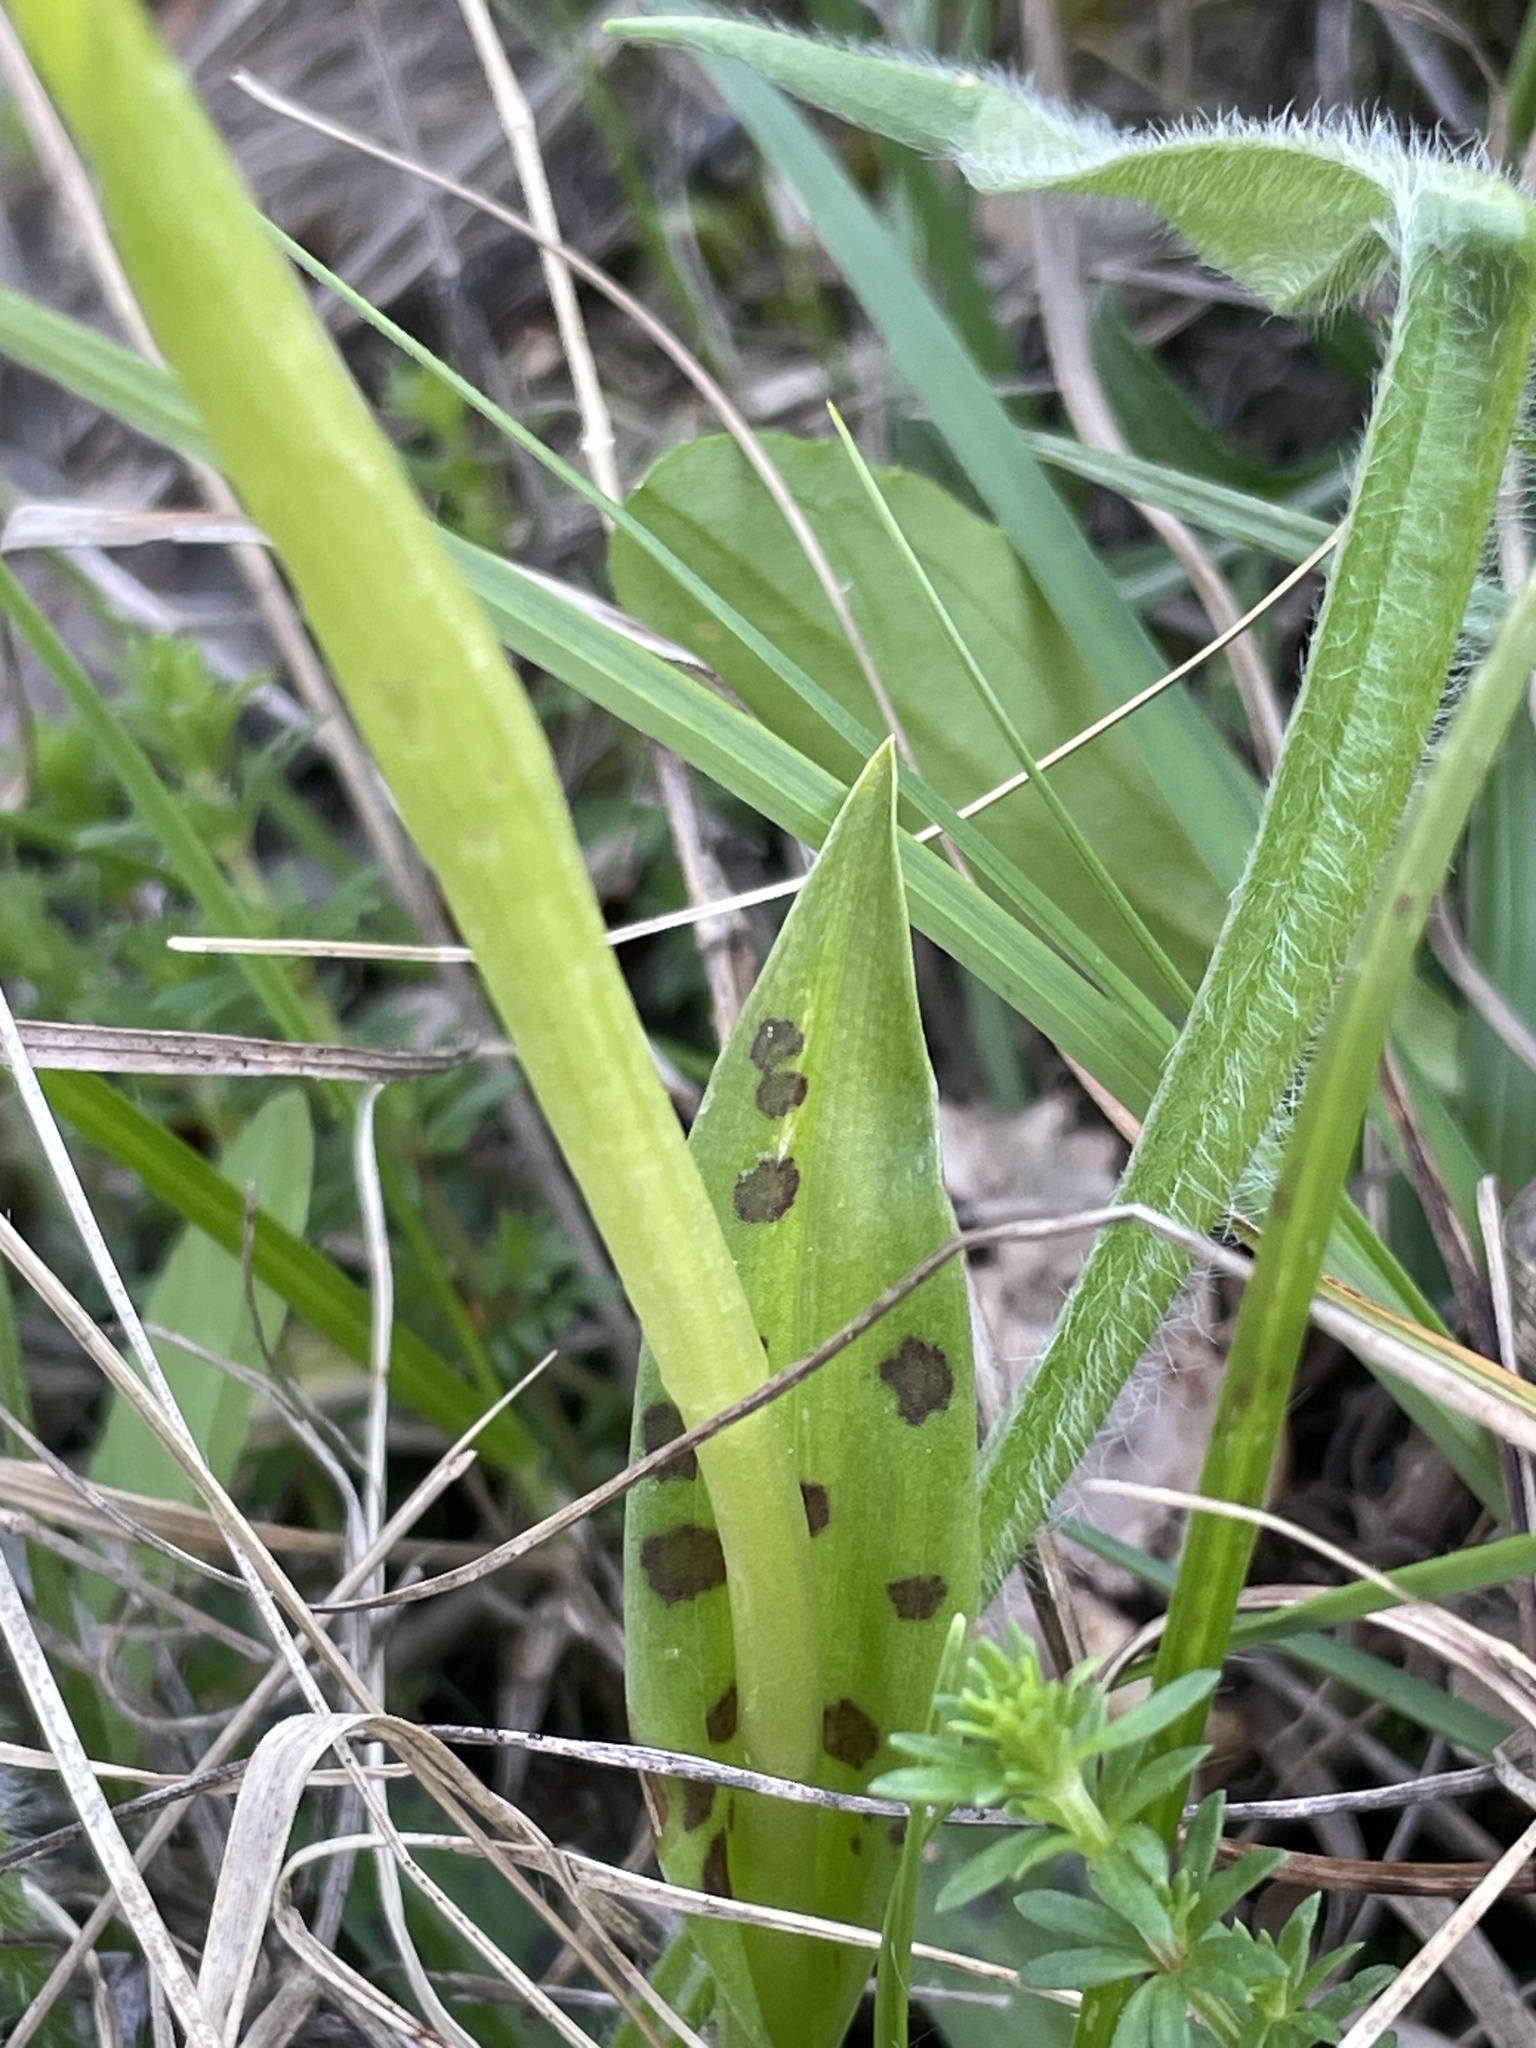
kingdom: Plantae
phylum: Tracheophyta
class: Liliopsida
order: Asparagales
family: Orchidaceae
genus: Orchis
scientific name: Orchis provincialis
